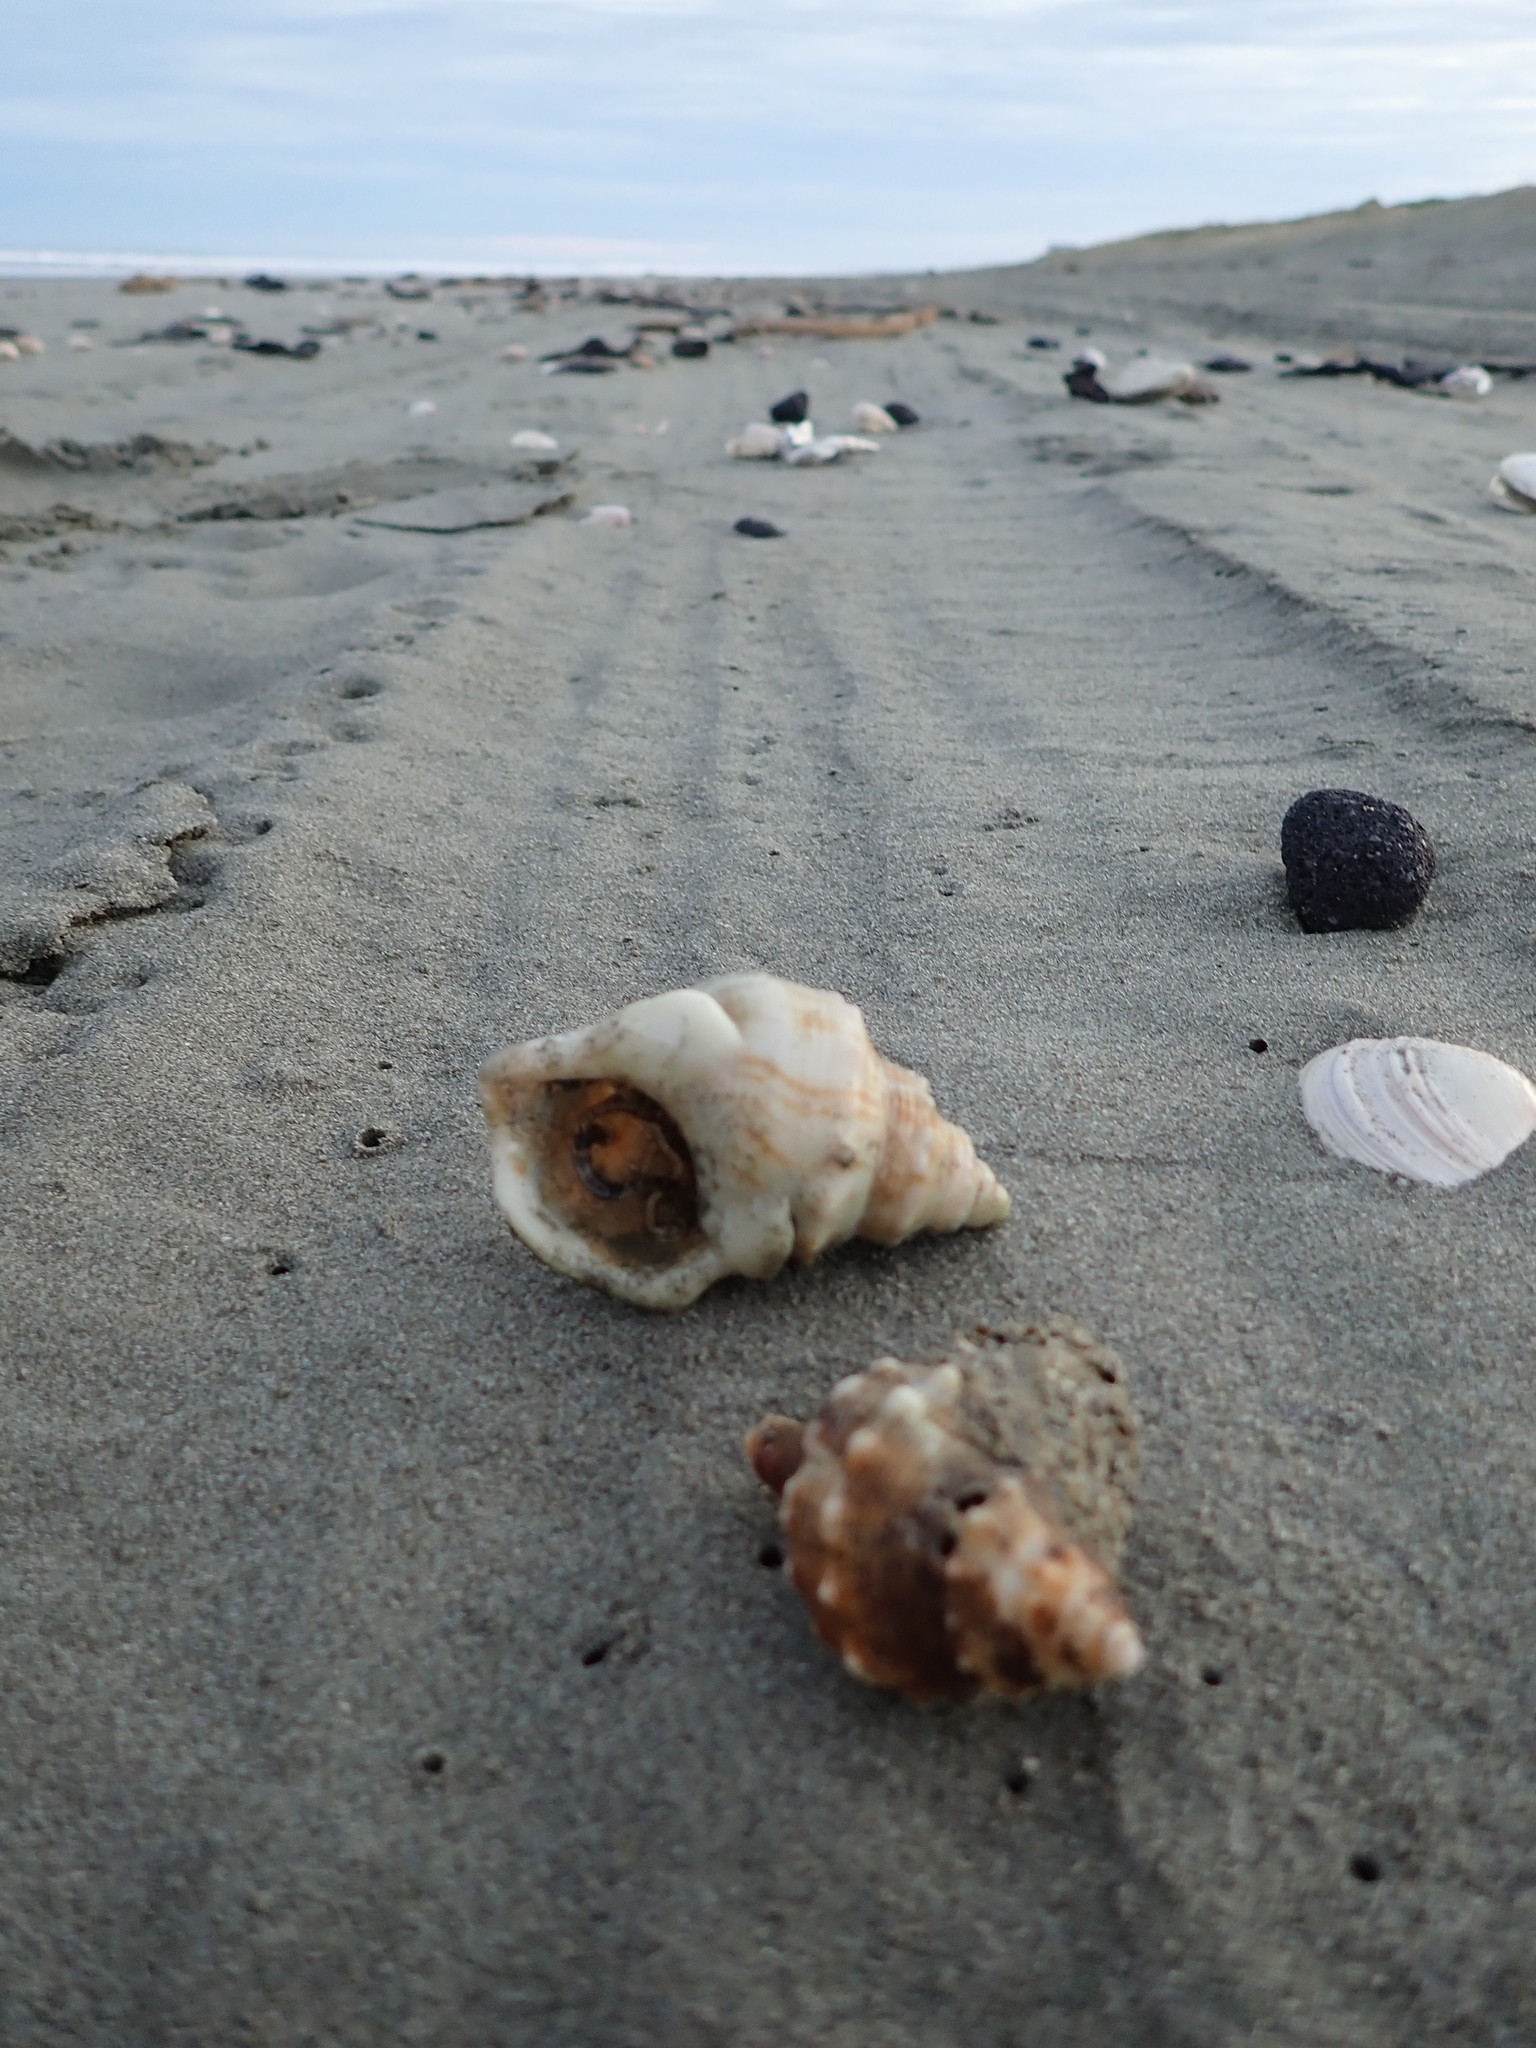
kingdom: Animalia
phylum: Mollusca
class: Gastropoda
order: Littorinimorpha
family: Struthiolariidae
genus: Struthiolaria
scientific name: Struthiolaria papulosa
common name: Large ostrich foot
